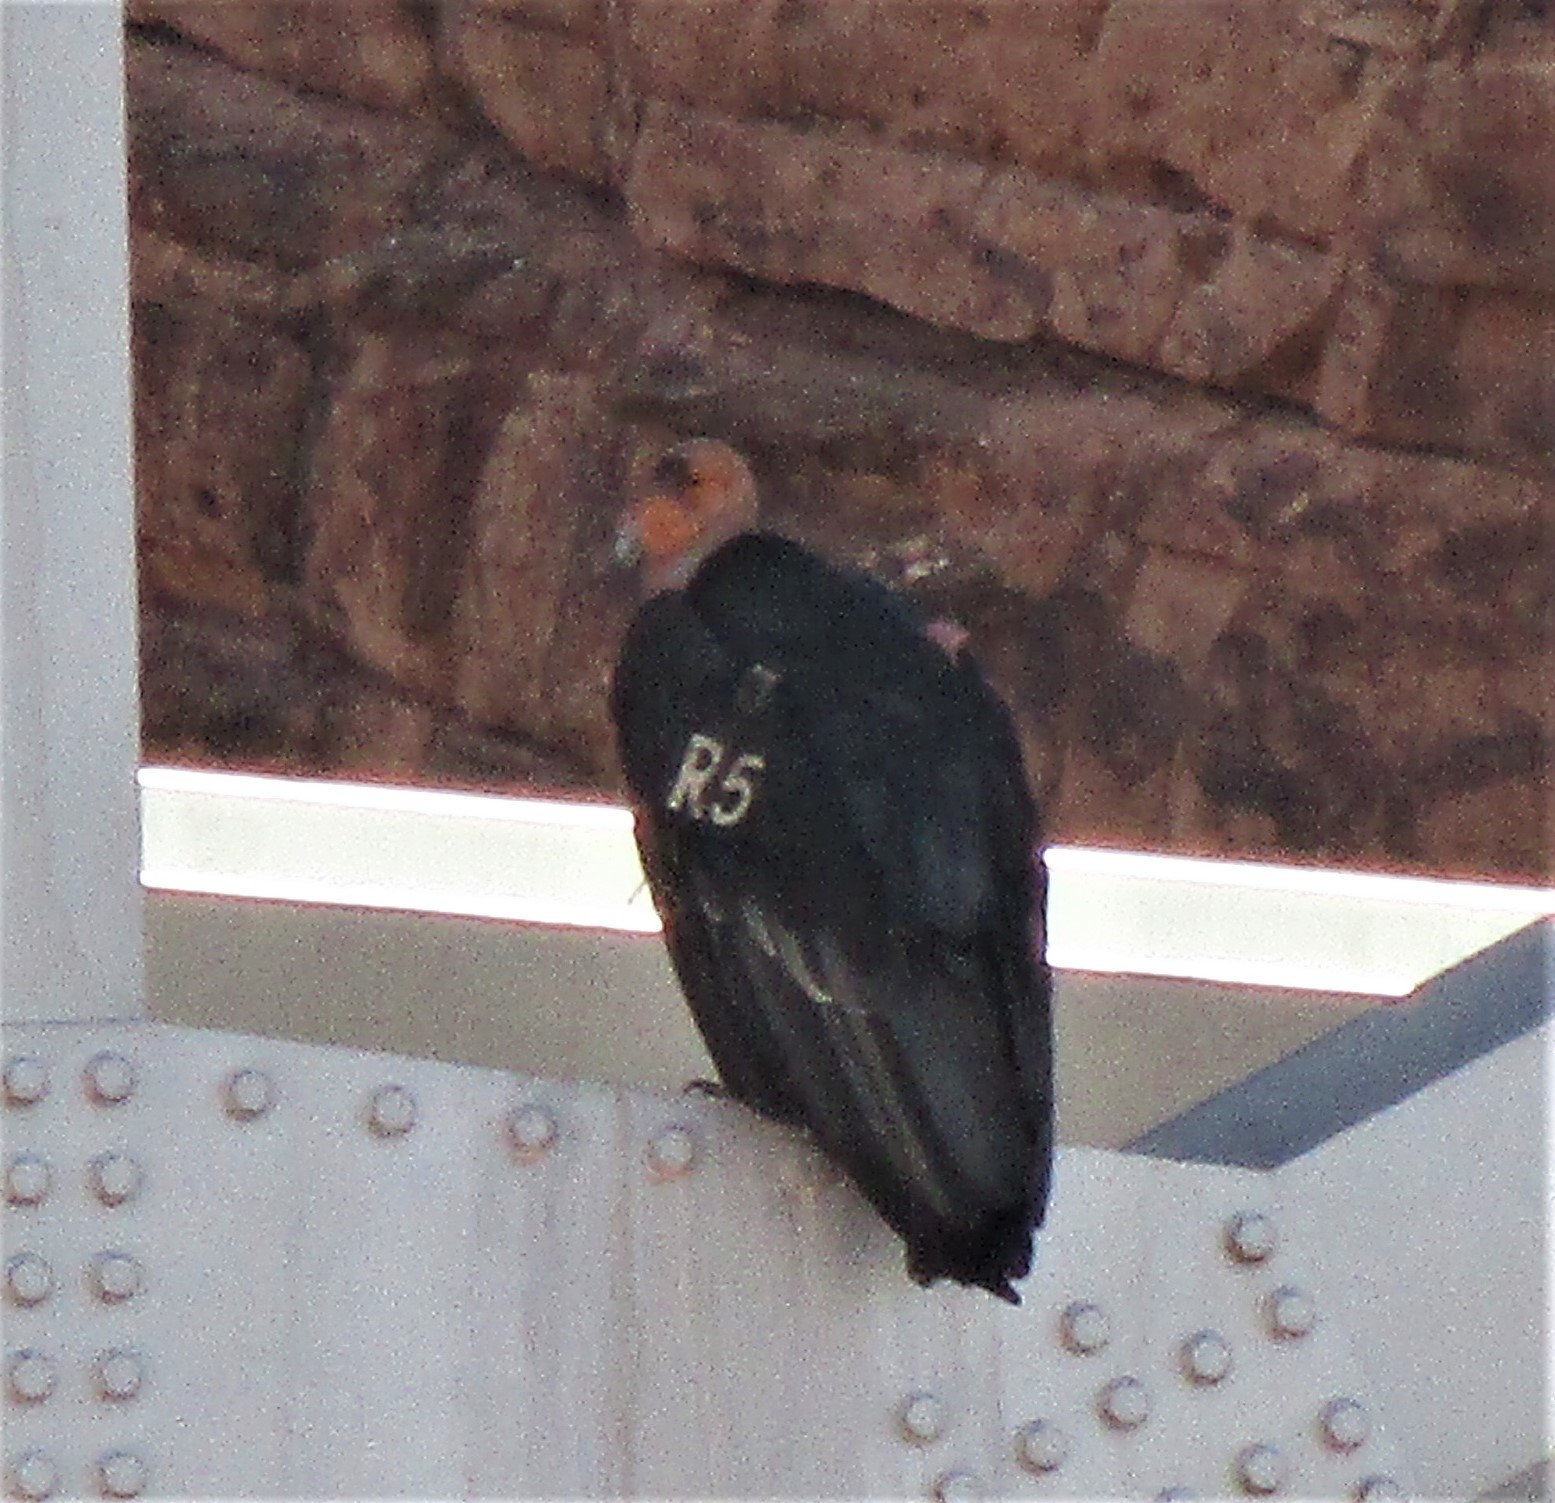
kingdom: Animalia
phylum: Chordata
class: Aves
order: Accipitriformes
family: Cathartidae
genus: Gymnogyps
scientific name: Gymnogyps californianus
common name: California condor
